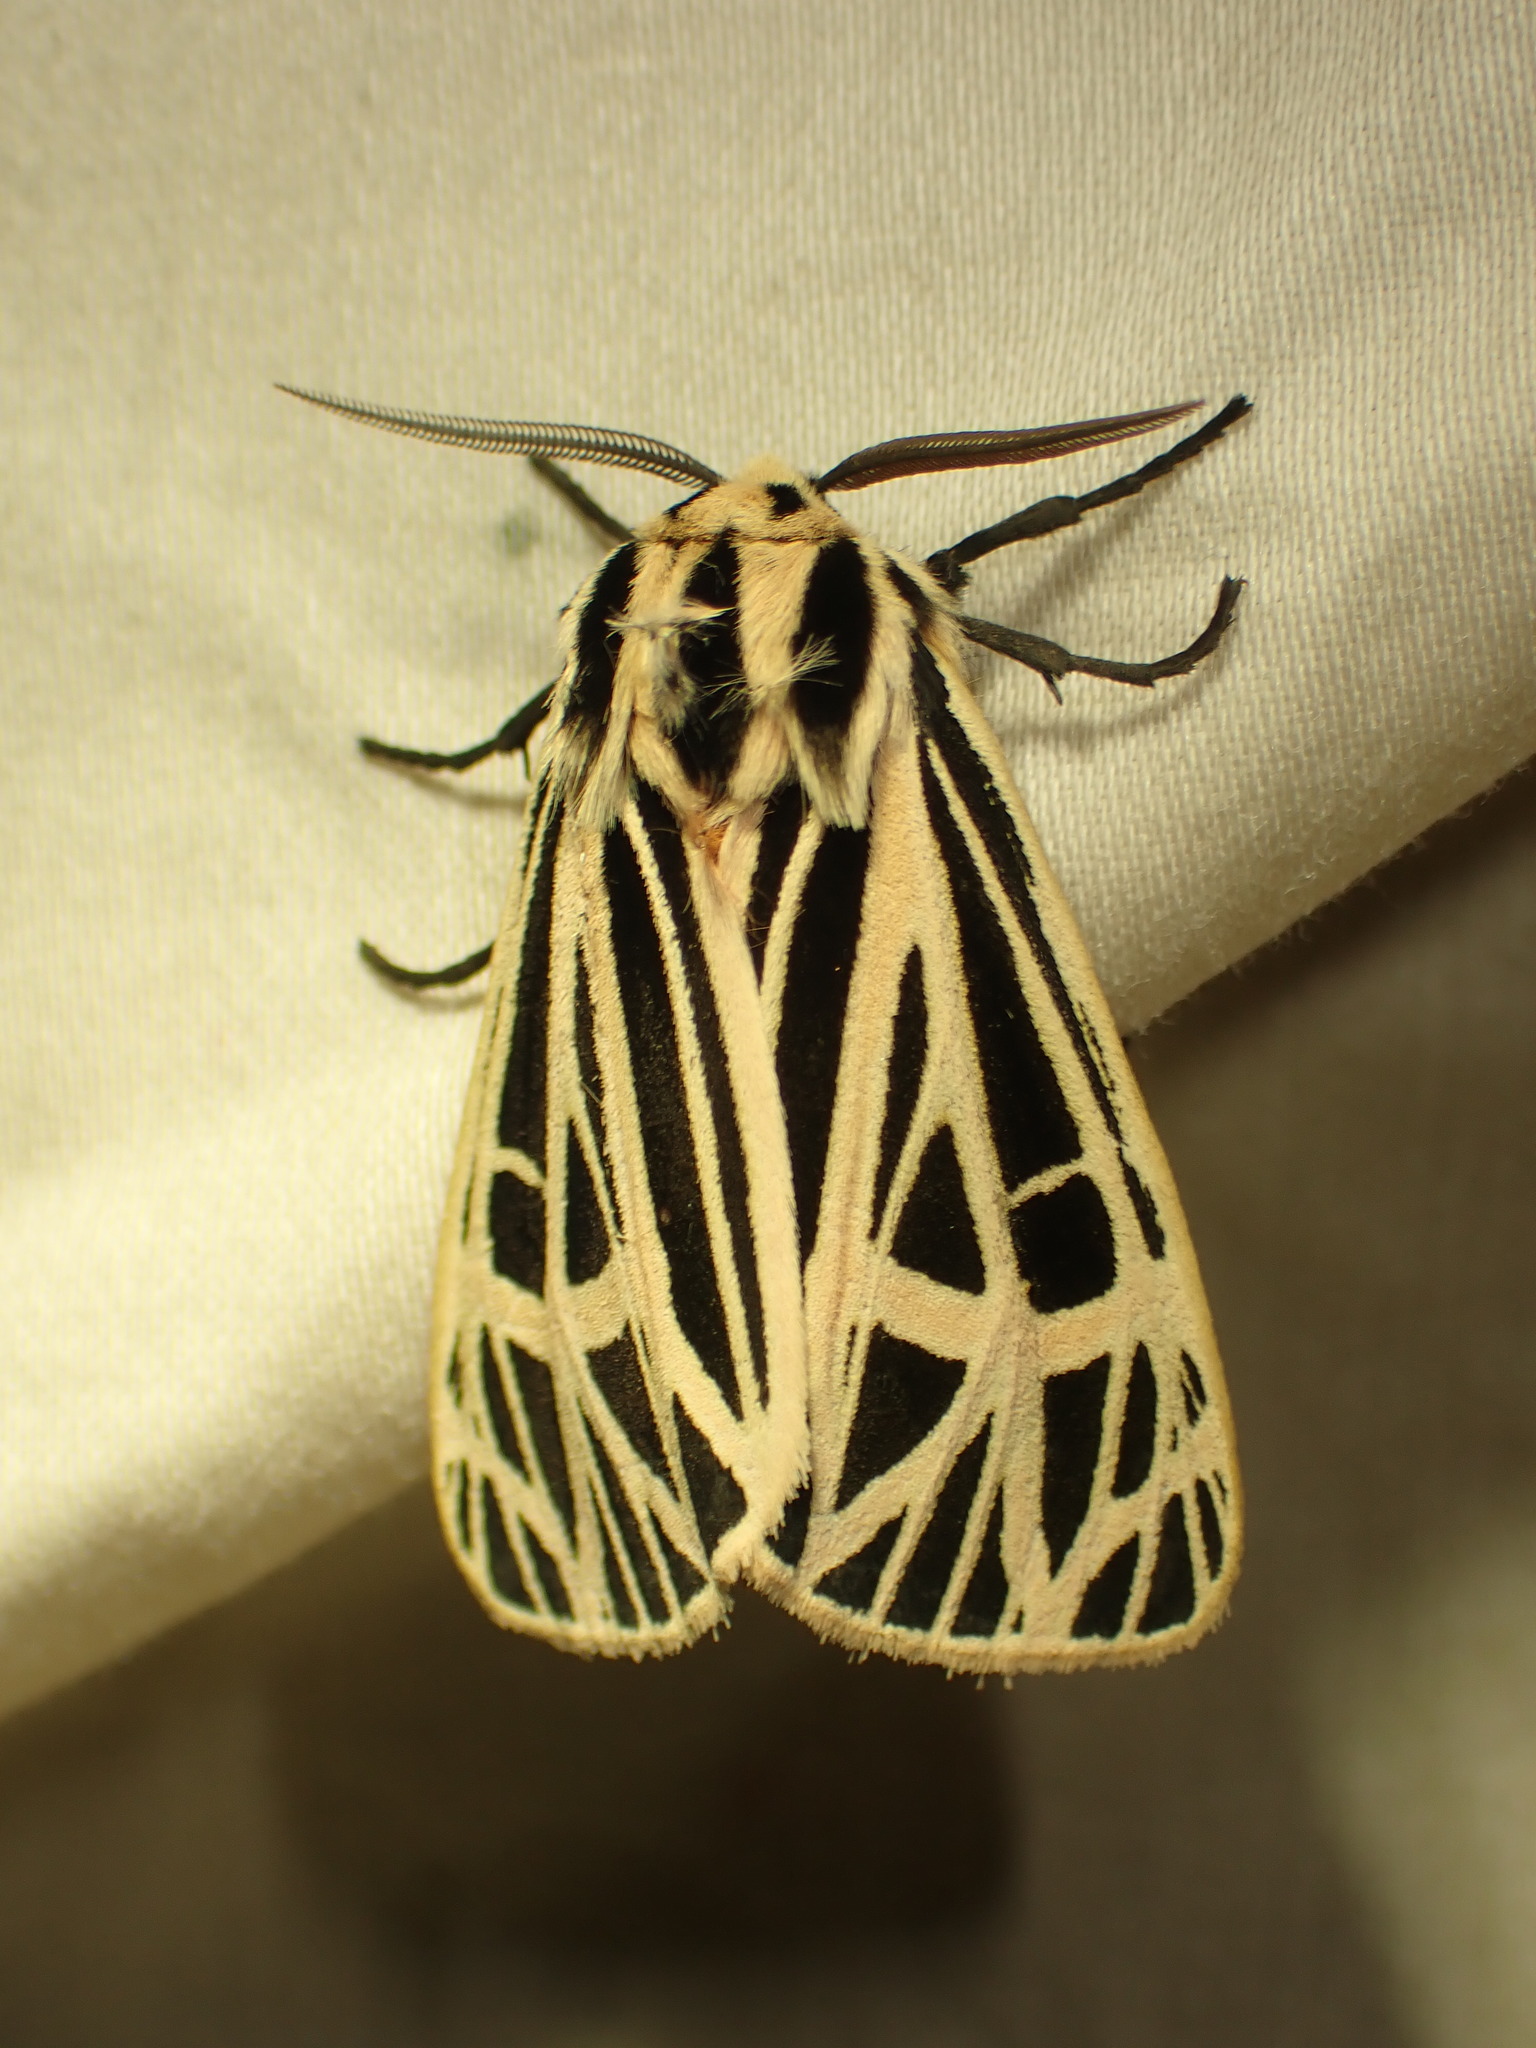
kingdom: Animalia
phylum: Arthropoda
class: Insecta
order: Lepidoptera
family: Erebidae
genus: Grammia
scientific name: Grammia virgo
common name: Virgin tiger moth
